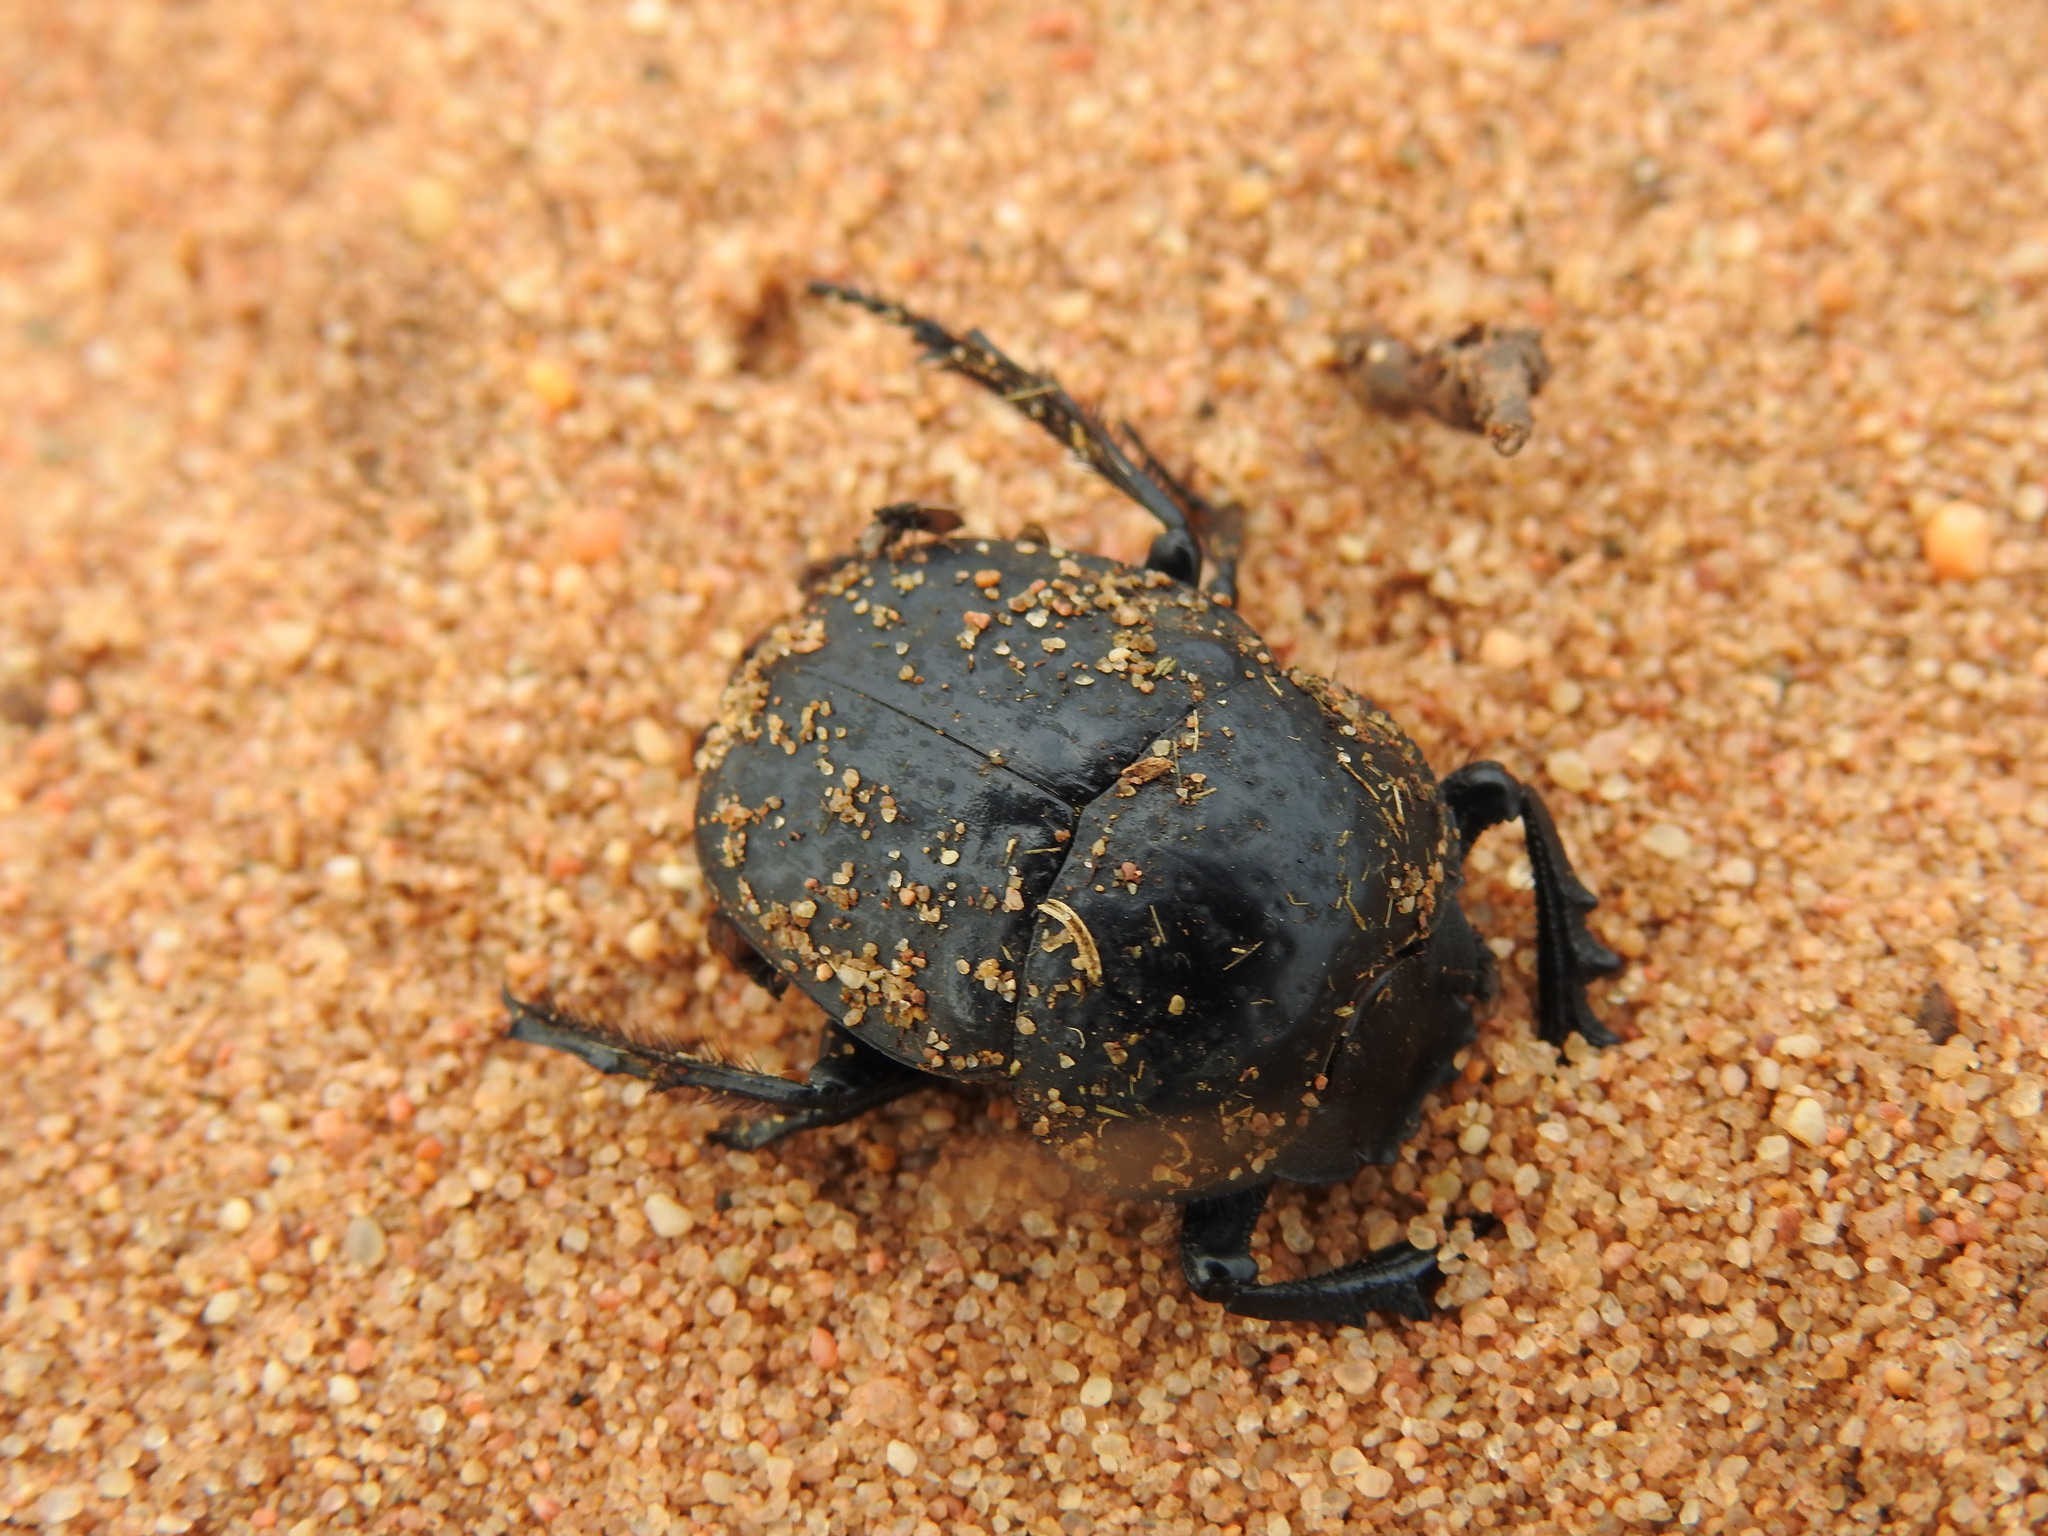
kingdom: Animalia
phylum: Arthropoda
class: Insecta
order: Coleoptera
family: Scarabaeidae
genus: Ateuchetus
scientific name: Ateuchetus cicatricosus
